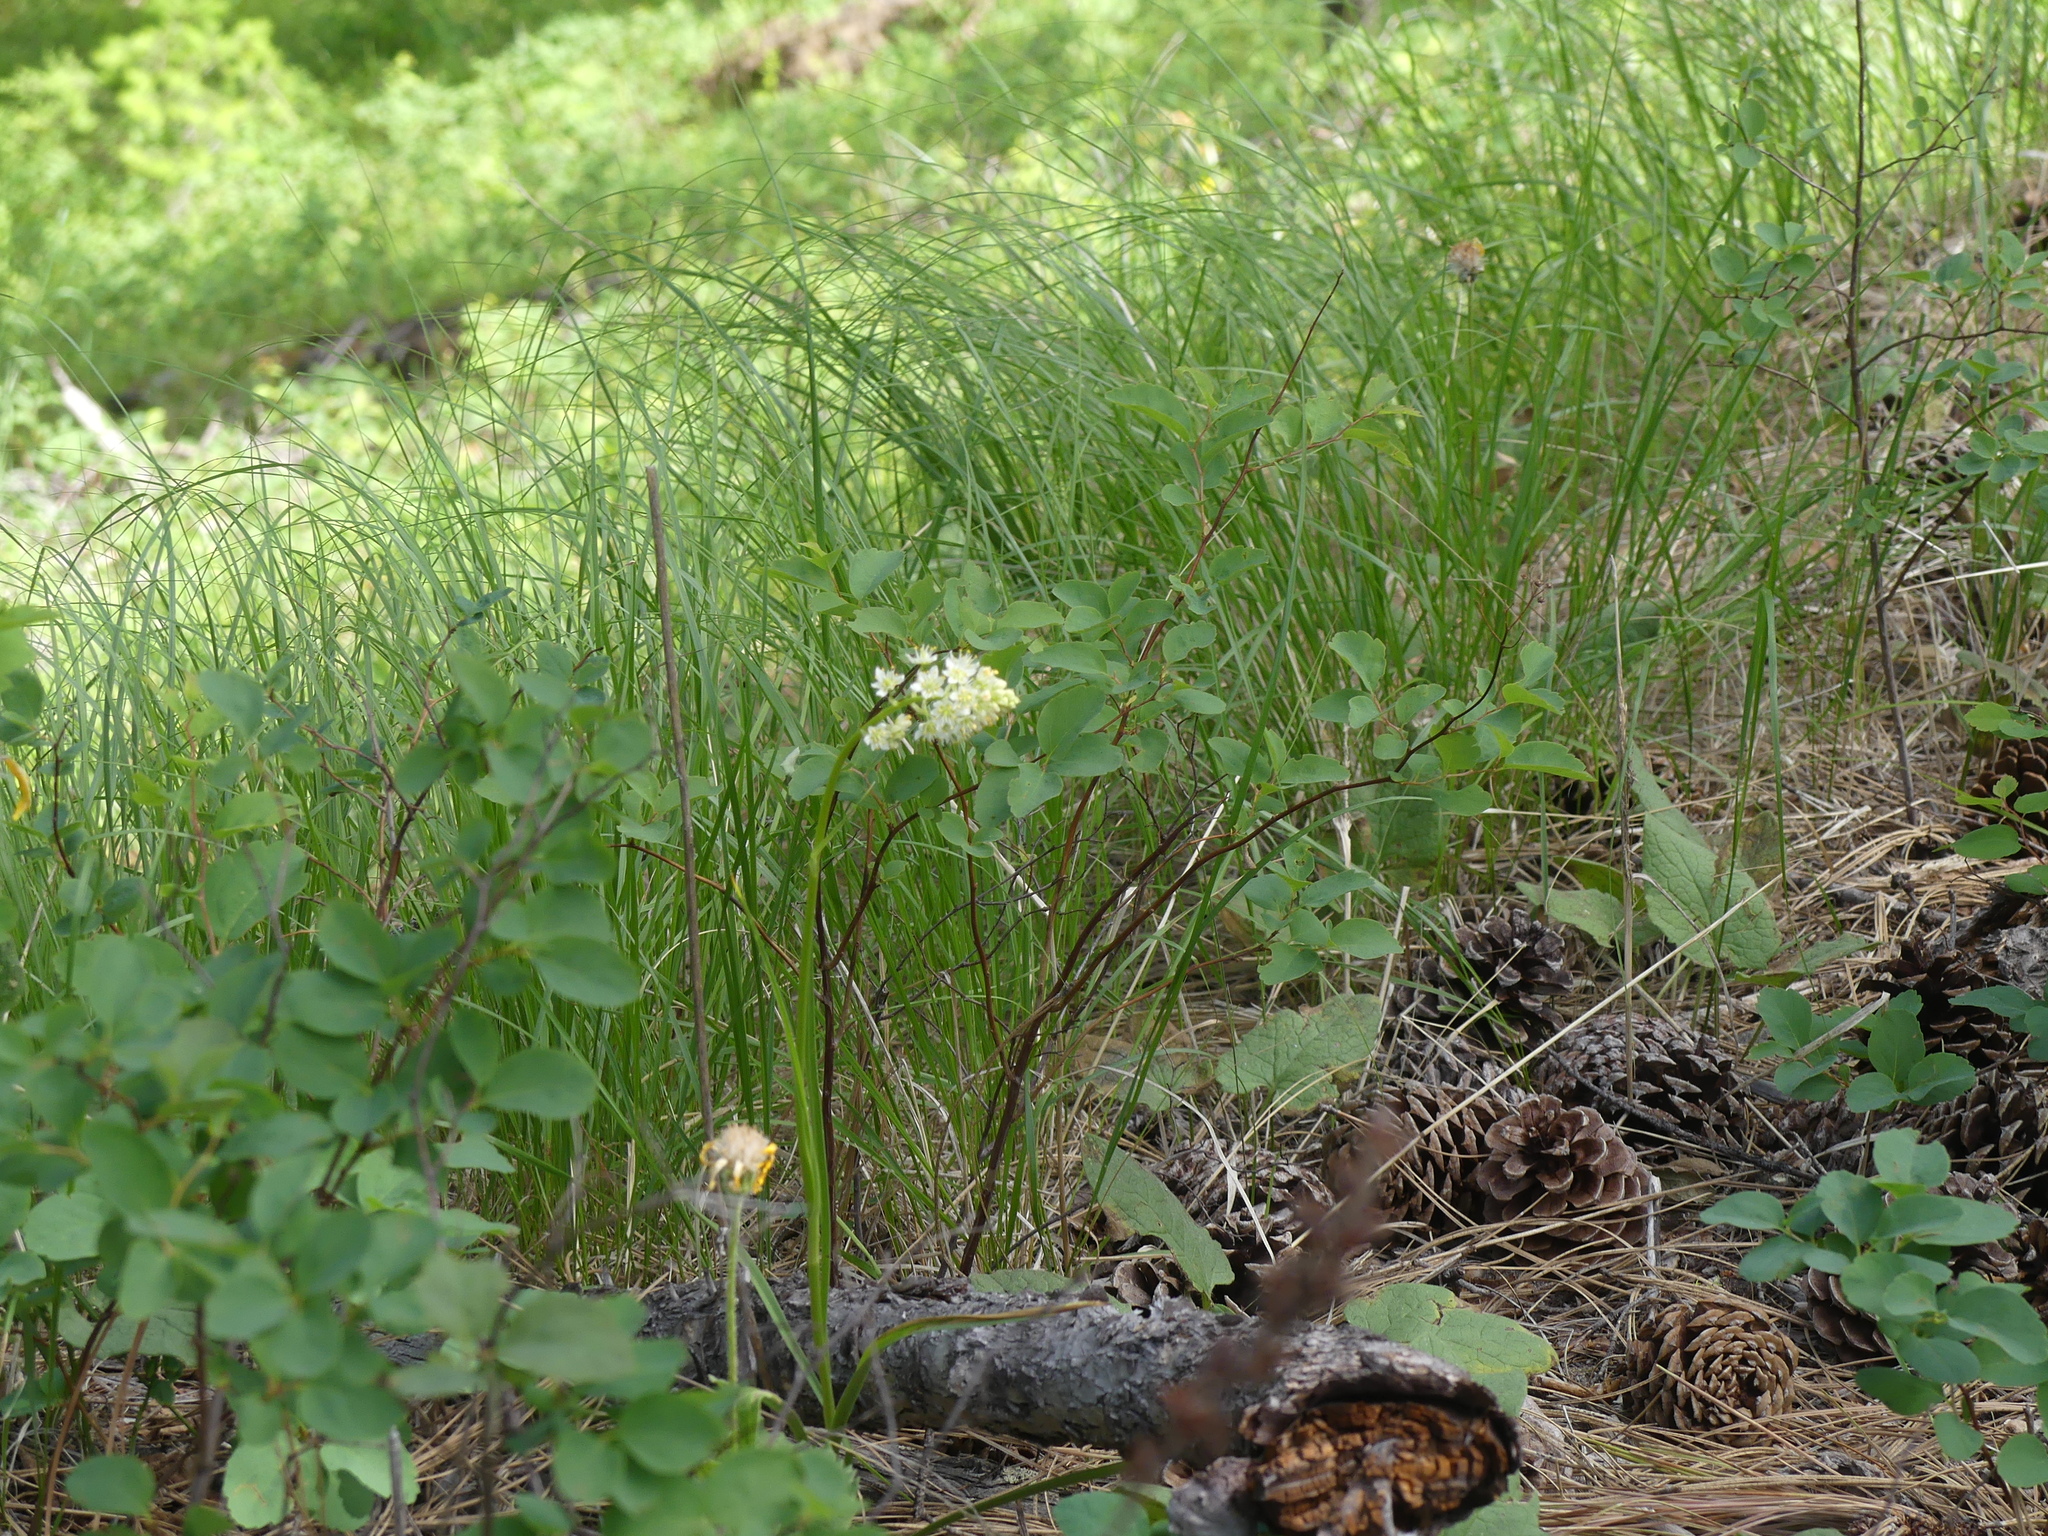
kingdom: Plantae
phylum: Tracheophyta
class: Liliopsida
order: Liliales
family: Melanthiaceae
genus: Toxicoscordion
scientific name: Toxicoscordion venenosum
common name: Meadow death camas
